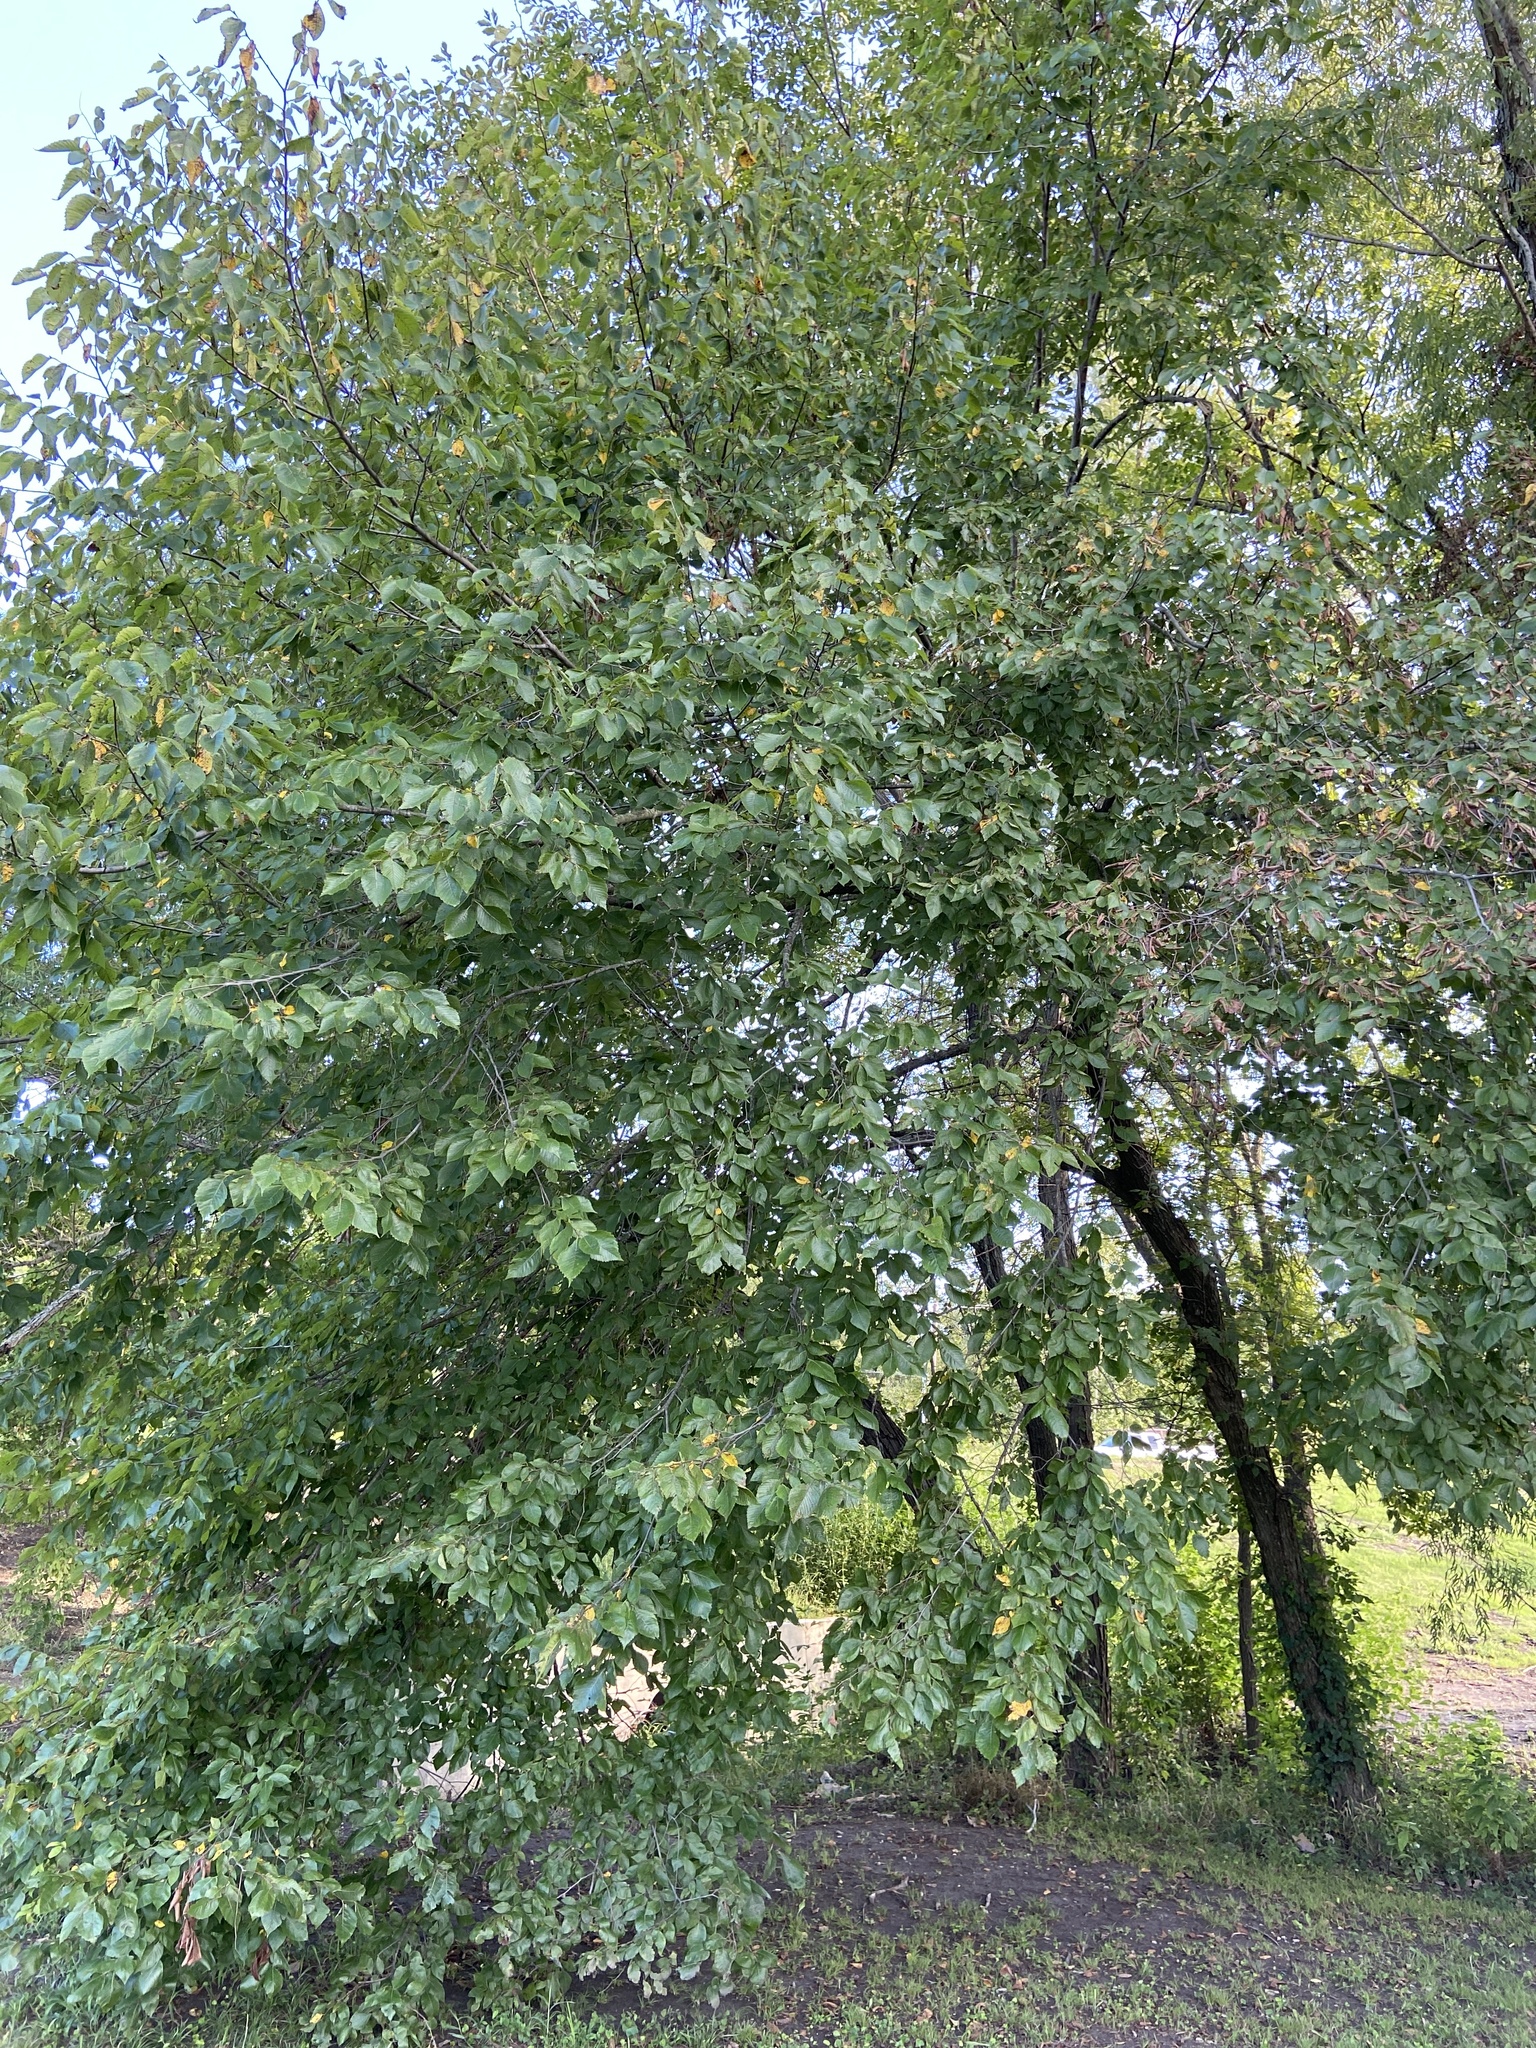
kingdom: Plantae
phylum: Tracheophyta
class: Magnoliopsida
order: Rosales
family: Ulmaceae
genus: Ulmus
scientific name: Ulmus americana
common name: American elm
